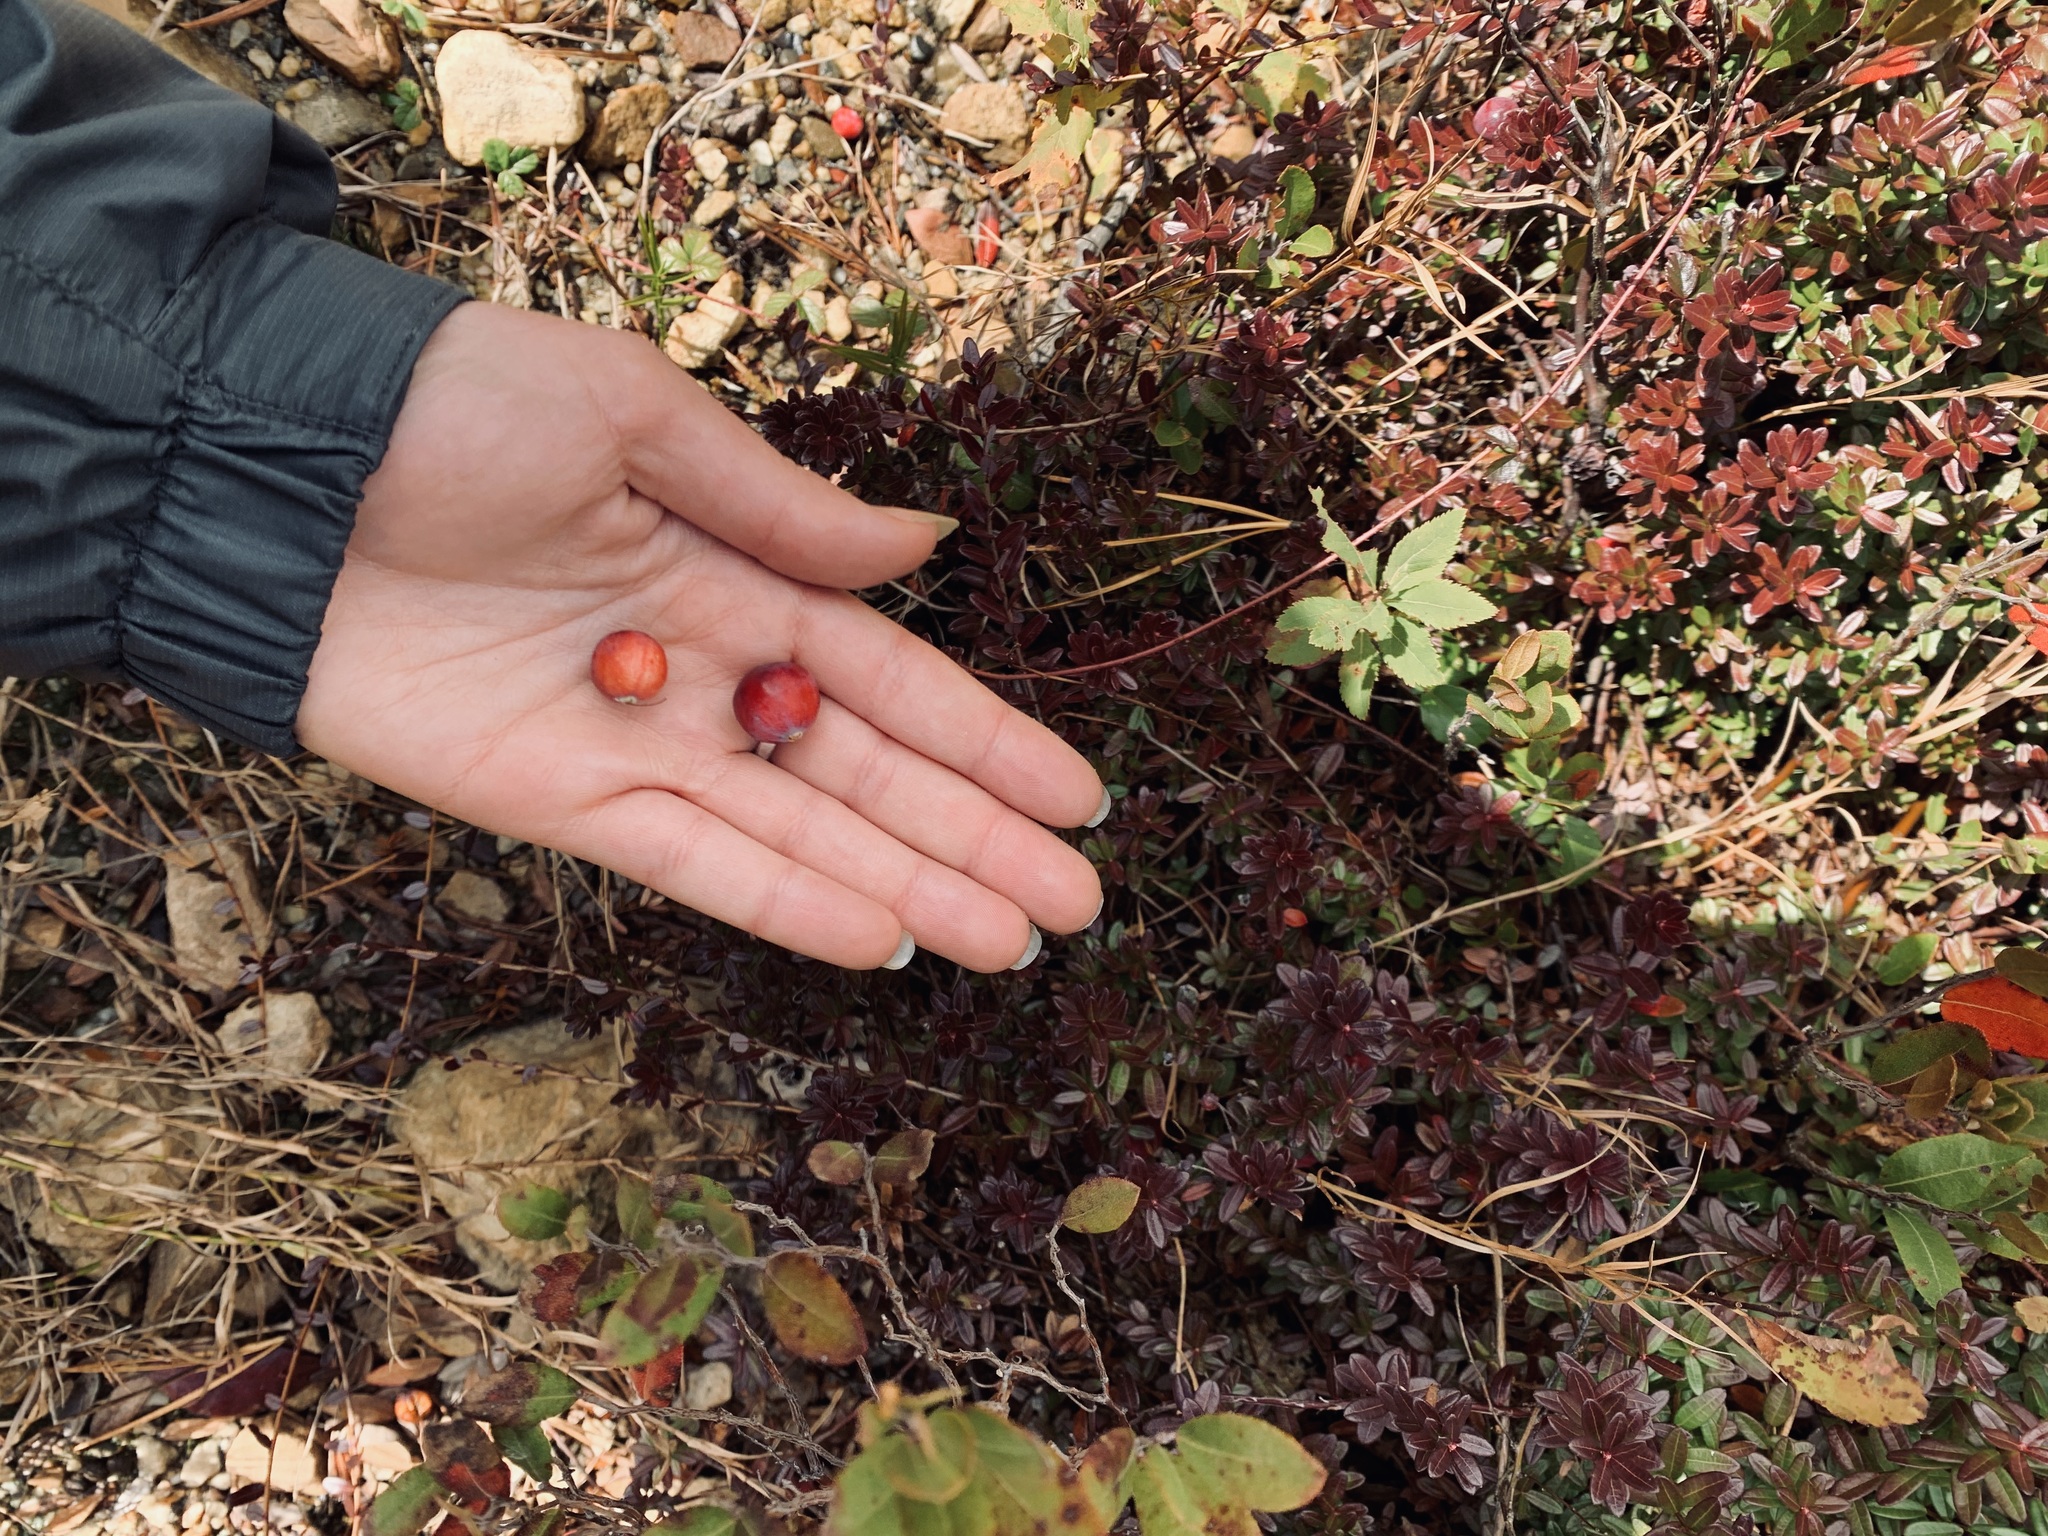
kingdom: Plantae
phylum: Tracheophyta
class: Magnoliopsida
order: Ericales
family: Ericaceae
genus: Vaccinium
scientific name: Vaccinium macrocarpon
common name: American cranberry
